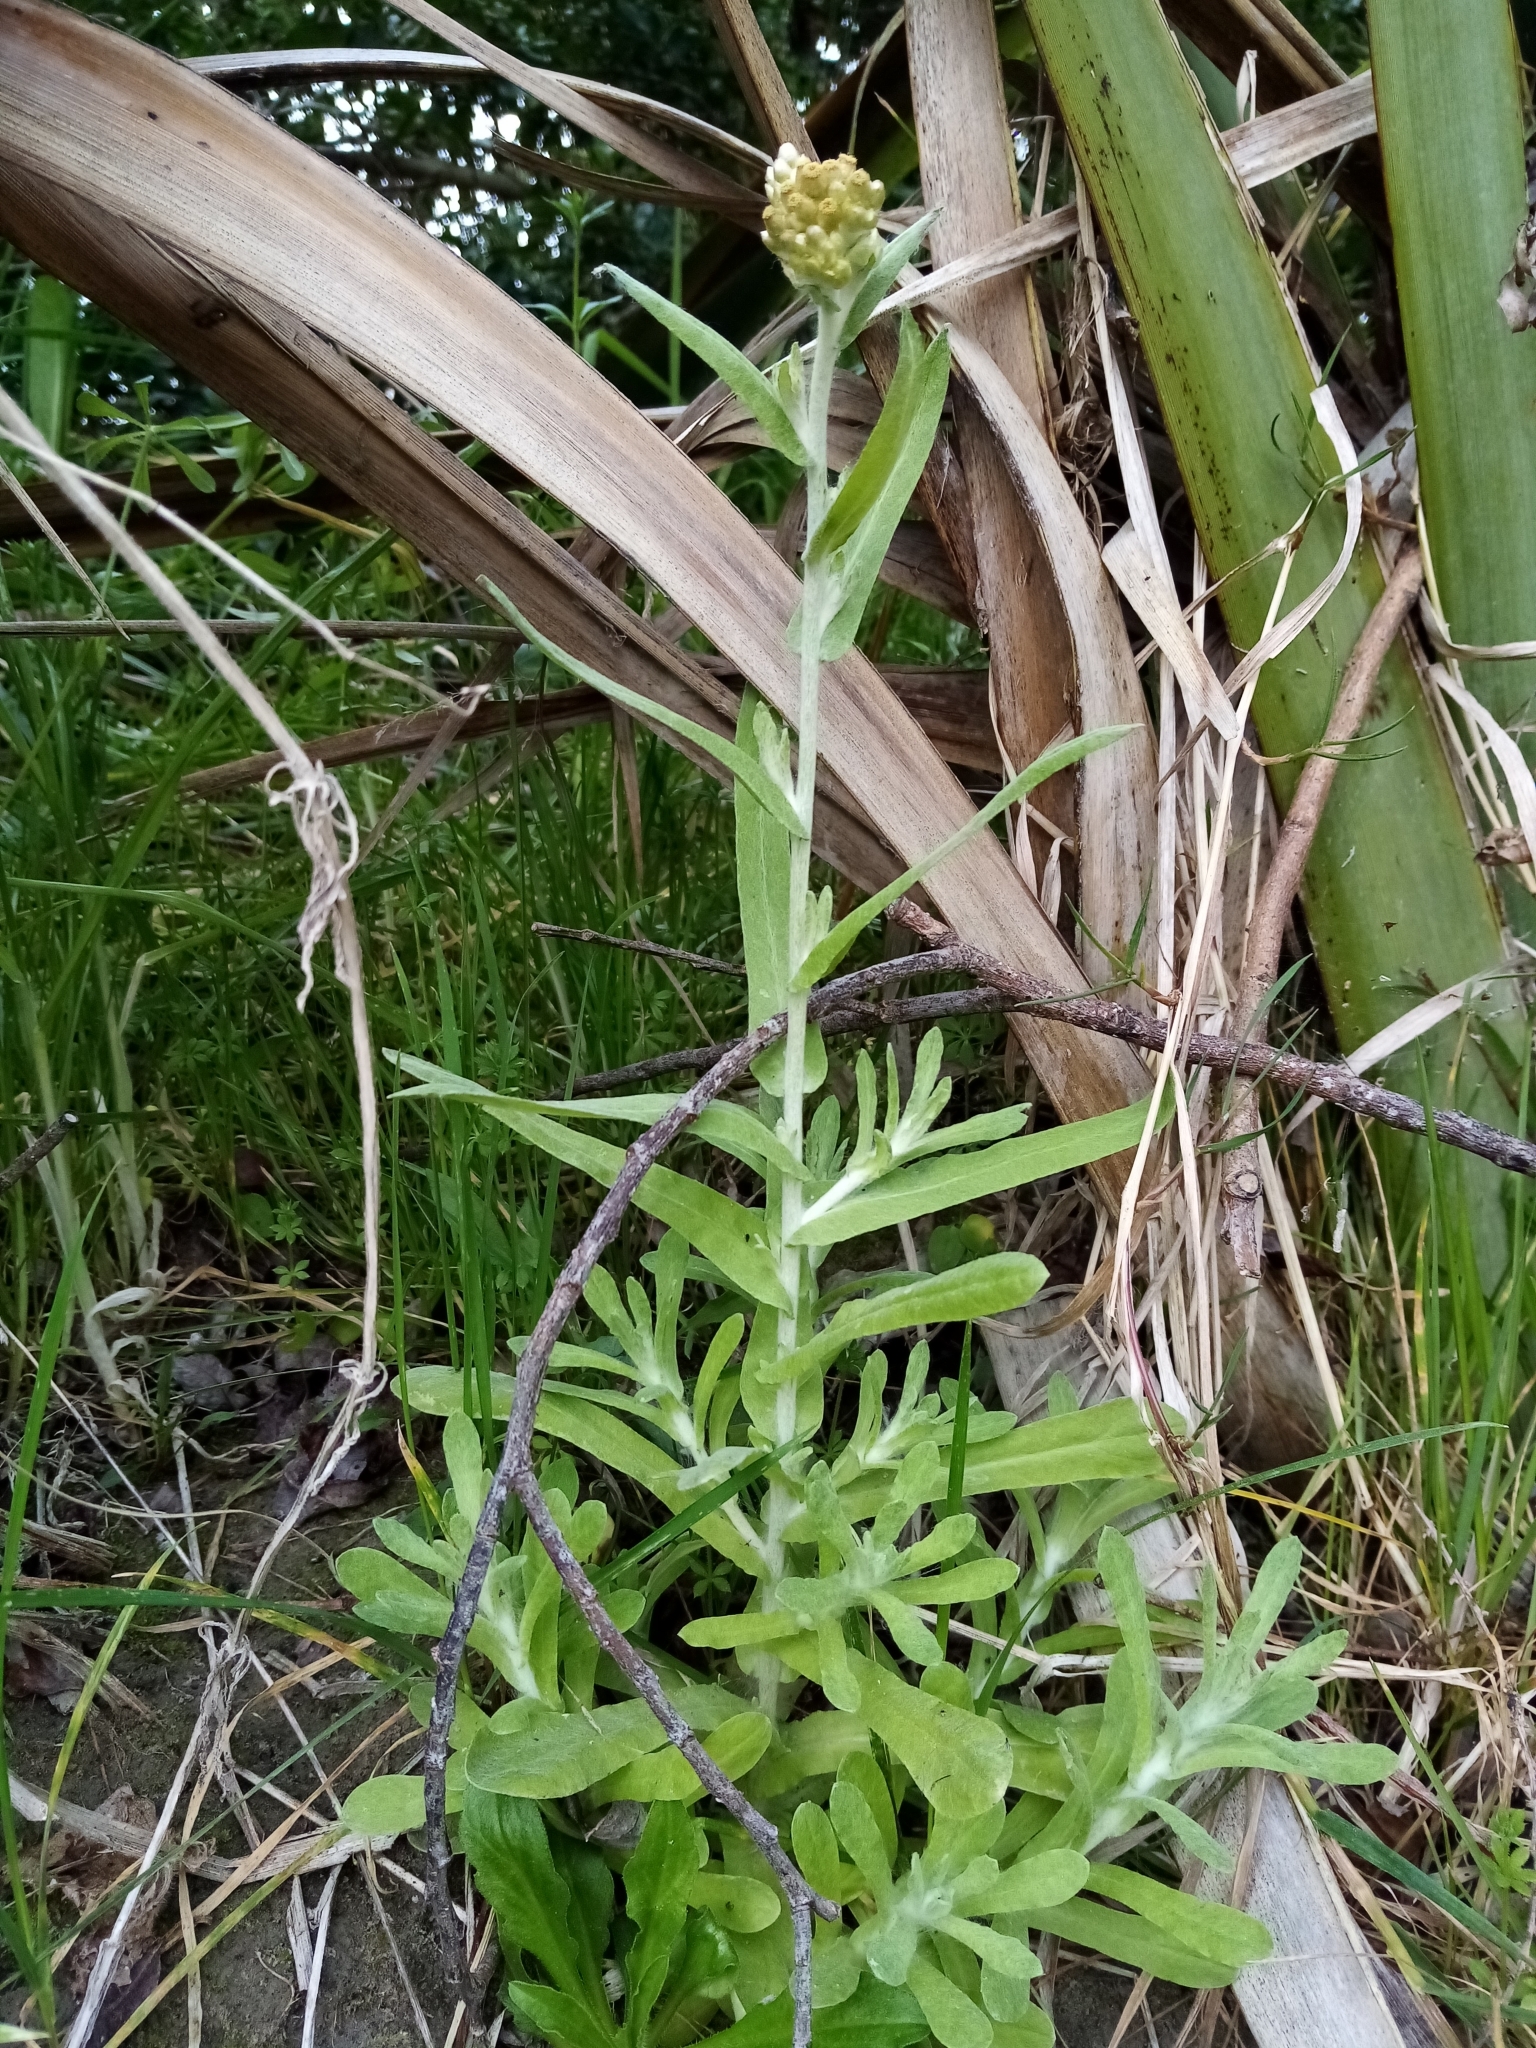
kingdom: Plantae
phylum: Tracheophyta
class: Magnoliopsida
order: Asterales
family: Asteraceae
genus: Helichrysum
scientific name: Helichrysum luteoalbum
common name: Daisy
